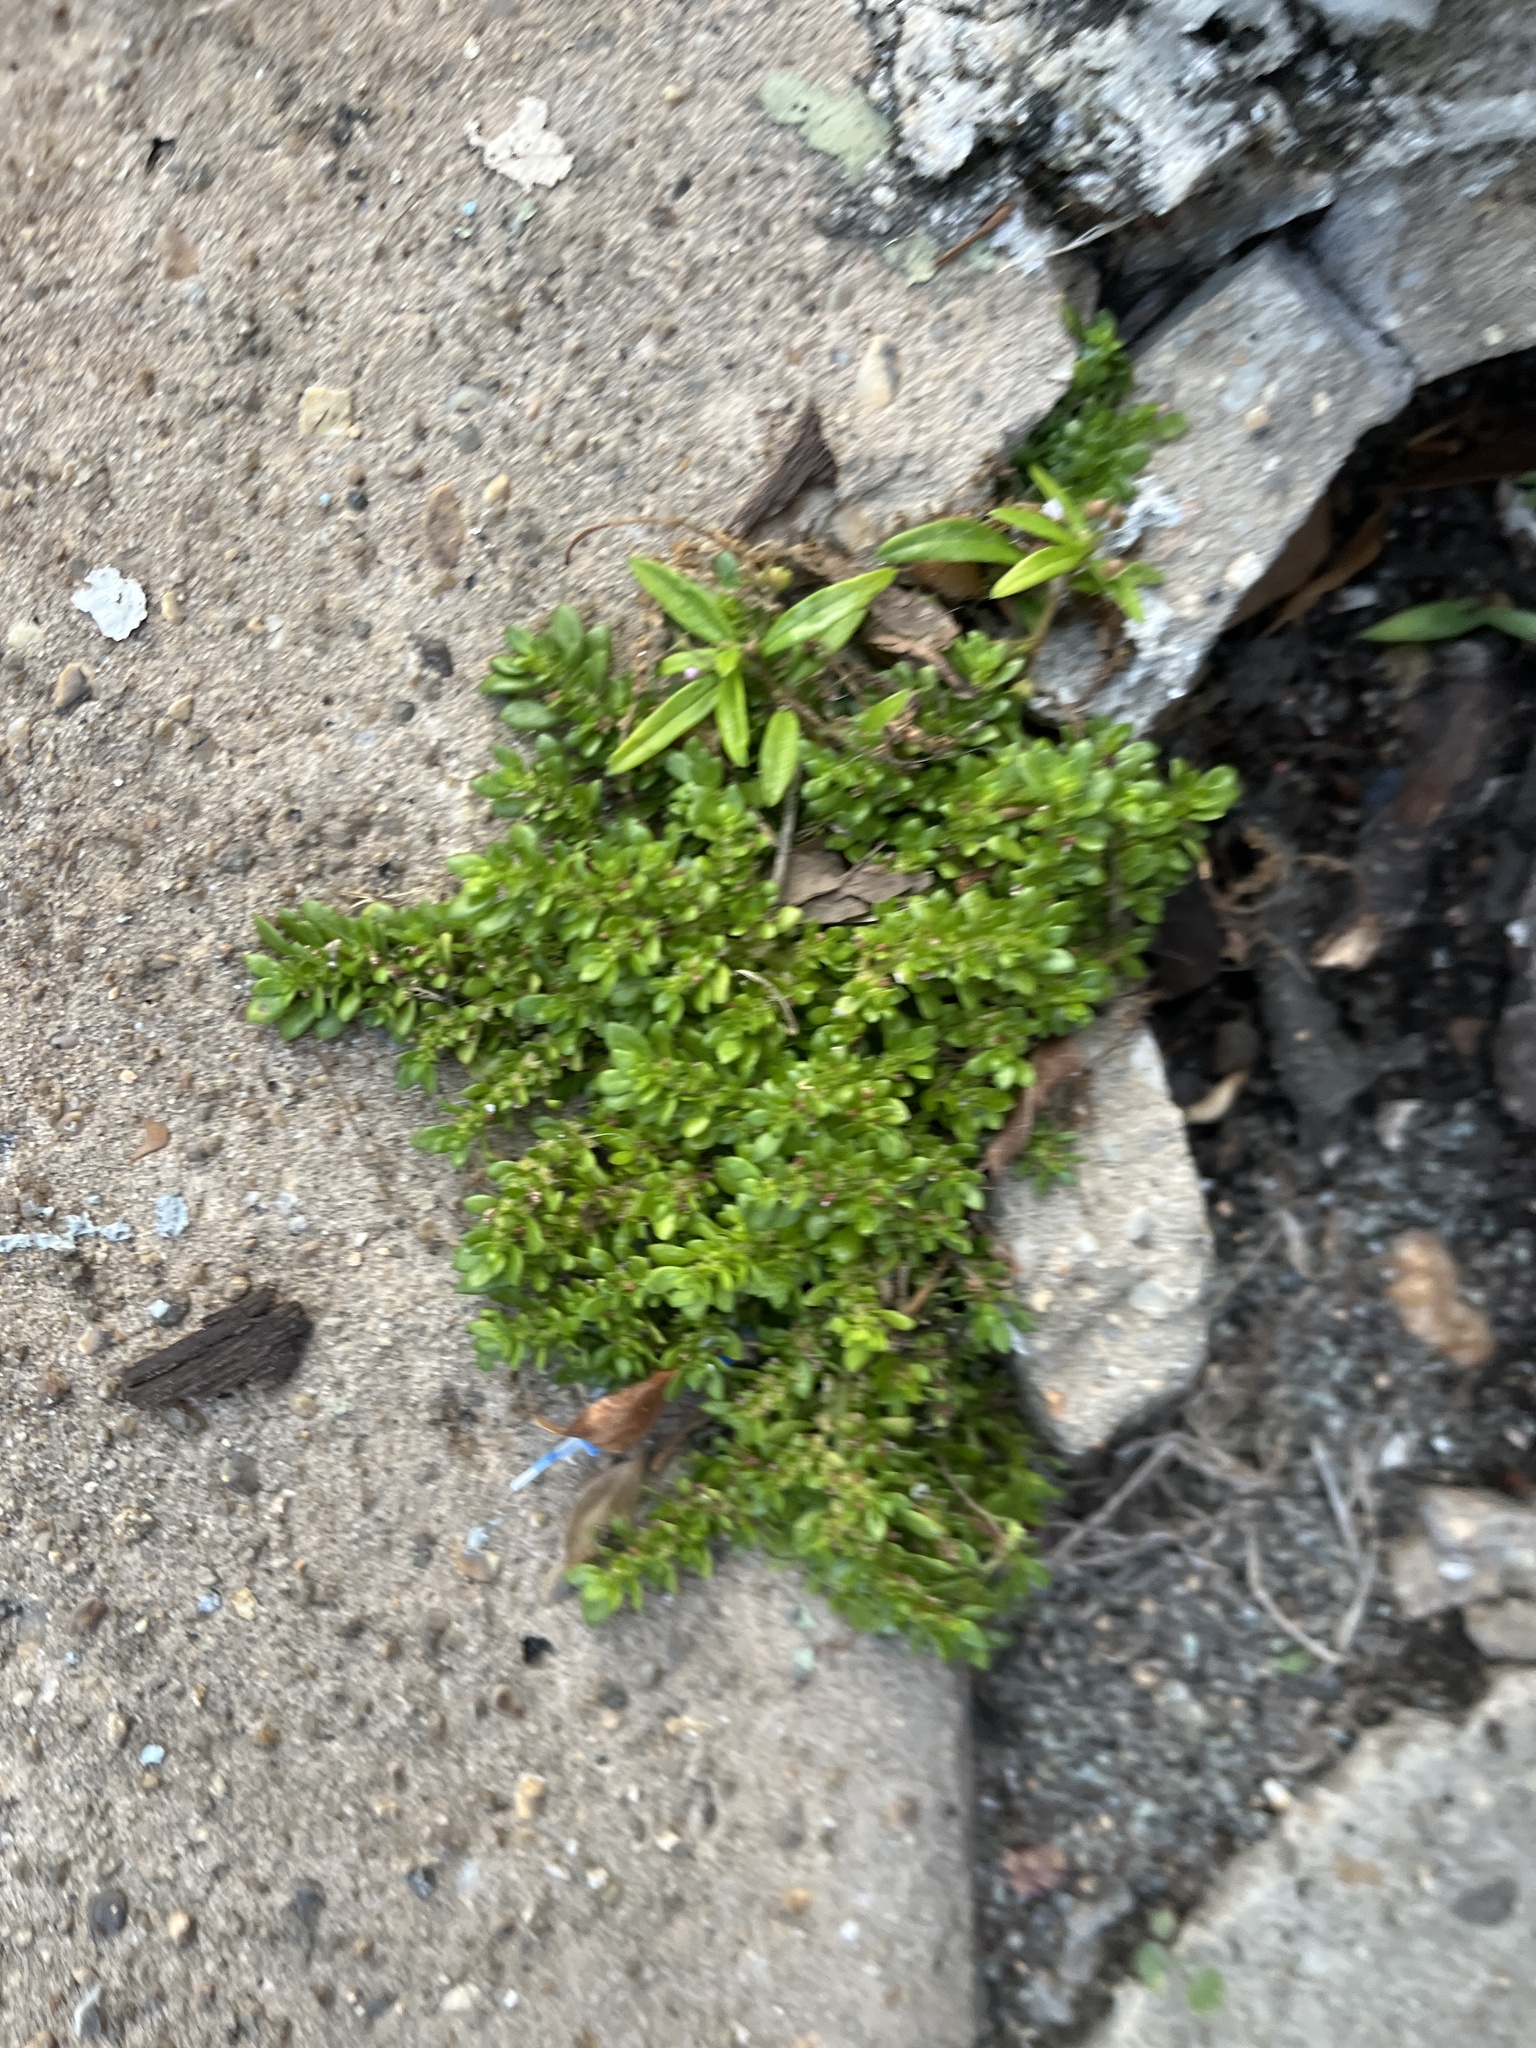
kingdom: Plantae
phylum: Tracheophyta
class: Magnoliopsida
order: Rosales
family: Urticaceae
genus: Pilea
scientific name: Pilea microphylla
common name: Artillery-plant
